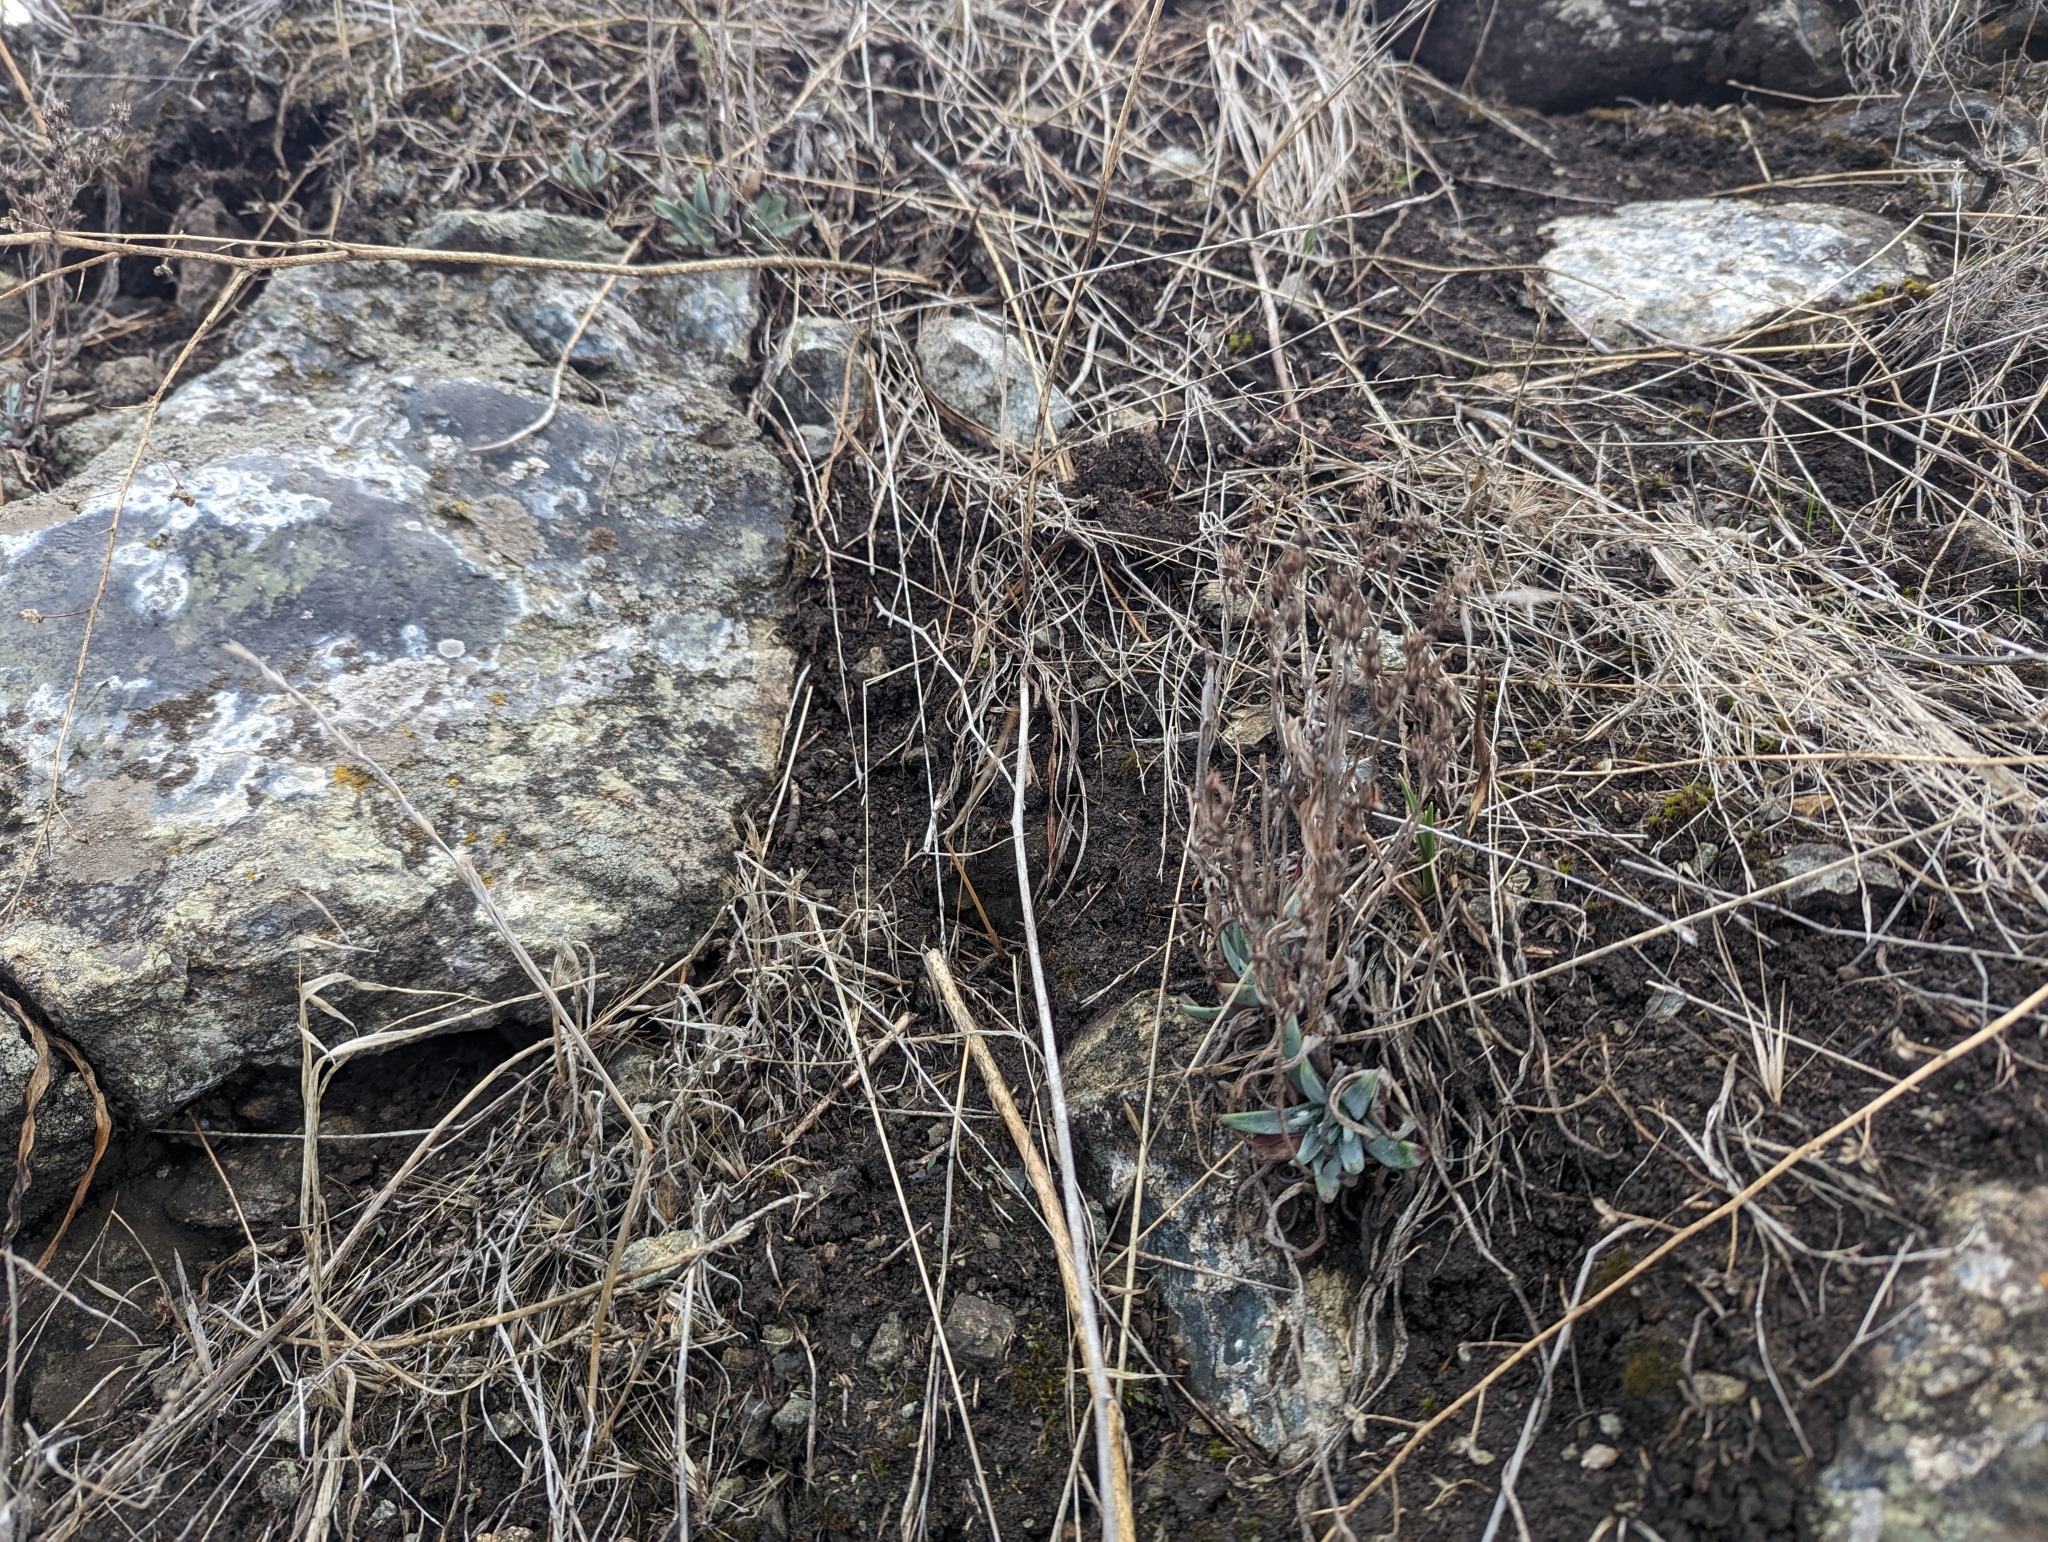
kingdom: Plantae
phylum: Tracheophyta
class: Magnoliopsida
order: Saxifragales
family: Crassulaceae
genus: Dudleya
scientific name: Dudleya abramsii
